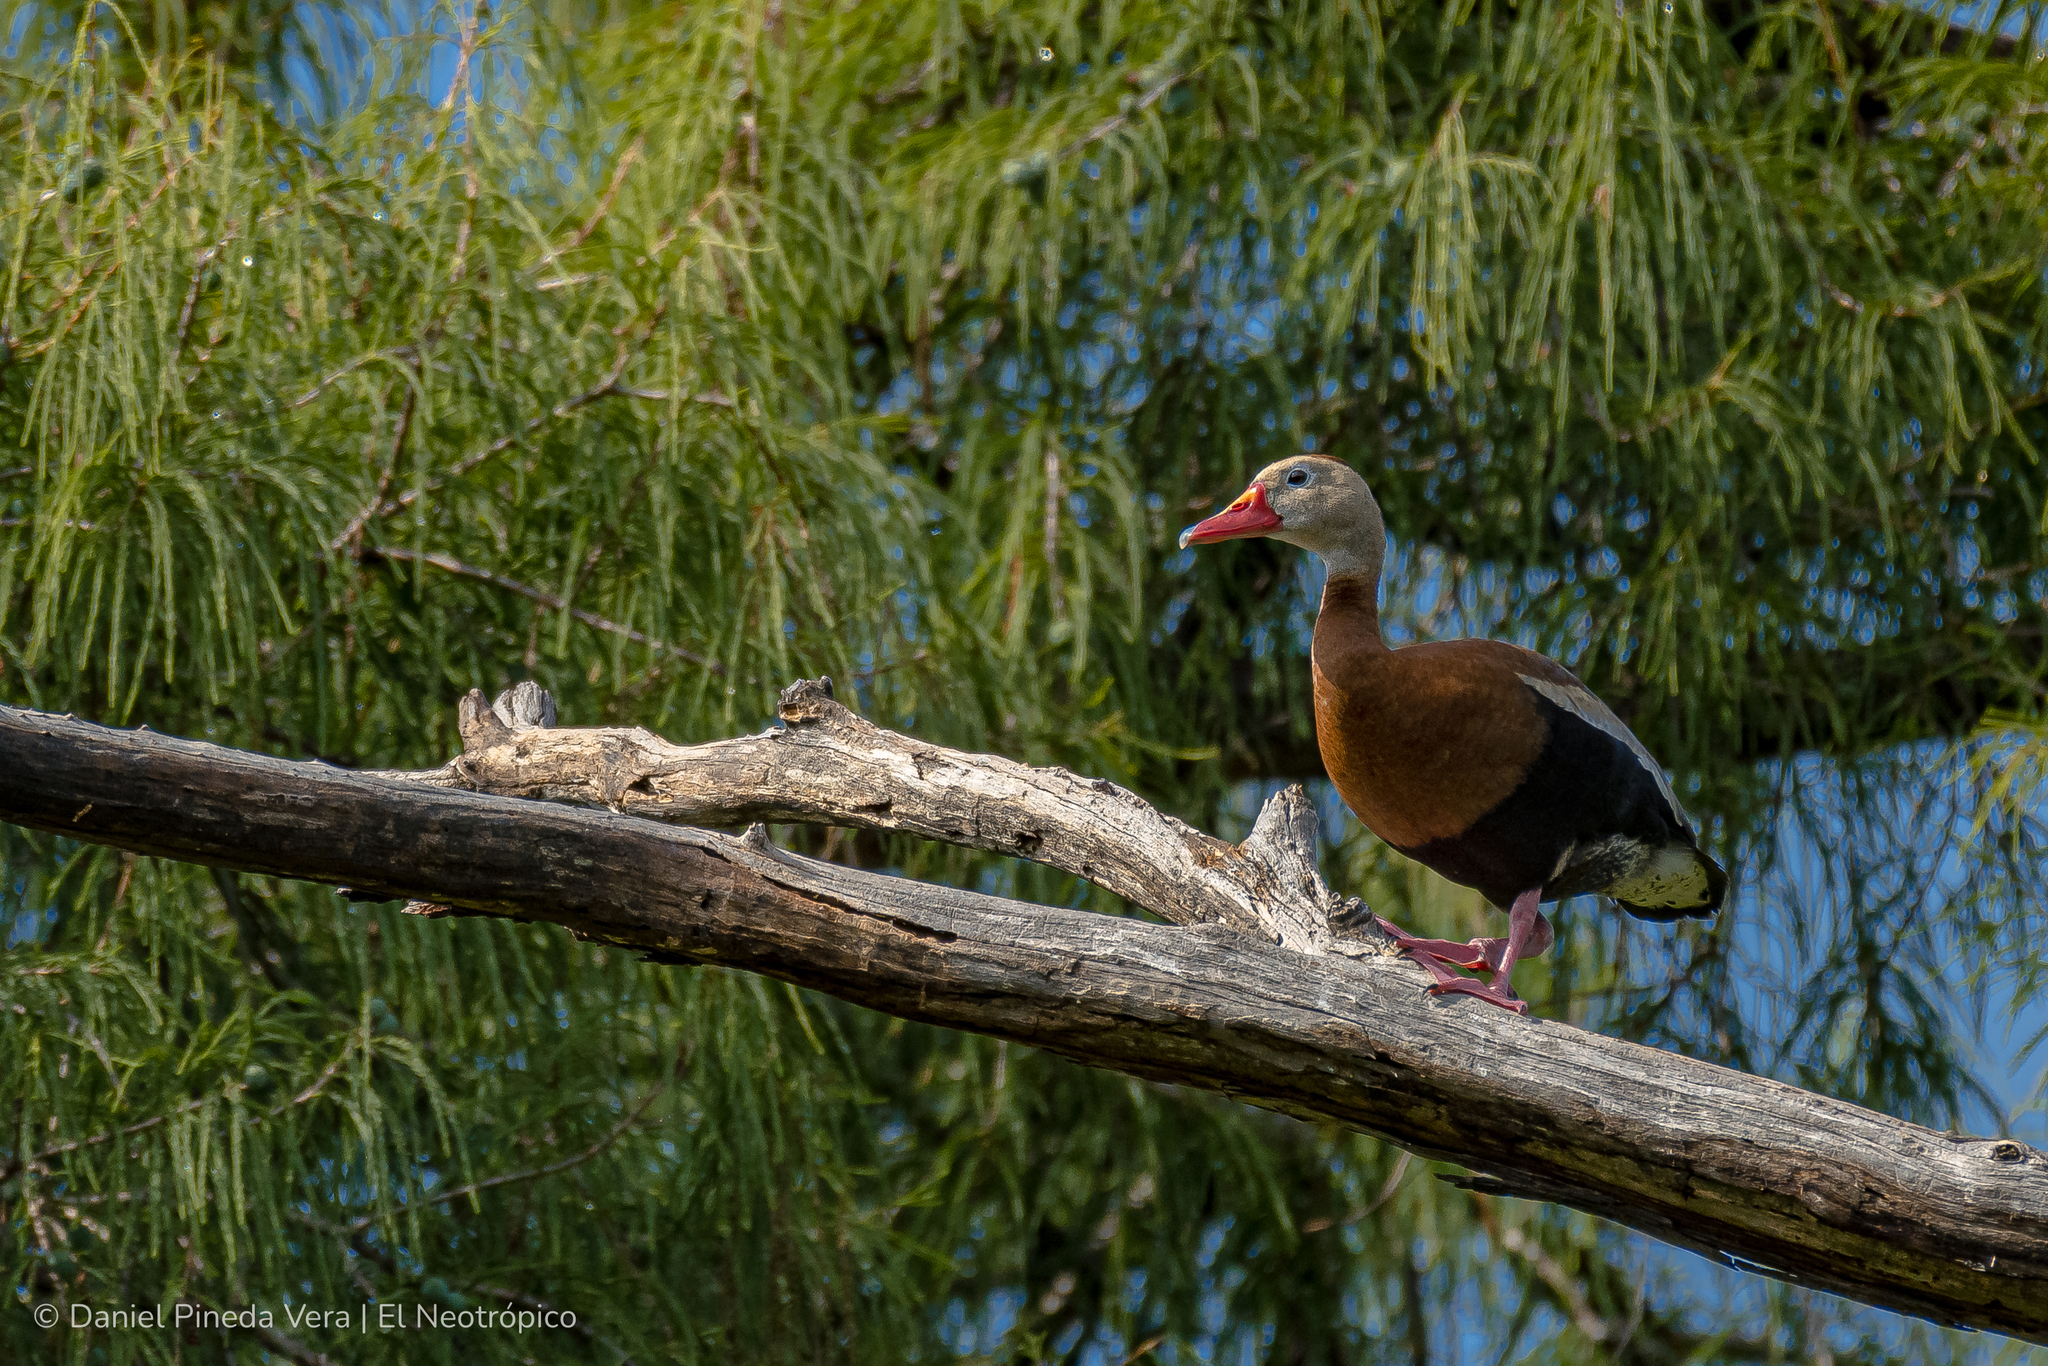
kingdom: Animalia
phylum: Chordata
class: Aves
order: Anseriformes
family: Anatidae
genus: Dendrocygna
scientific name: Dendrocygna autumnalis
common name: Black-bellied whistling duck
